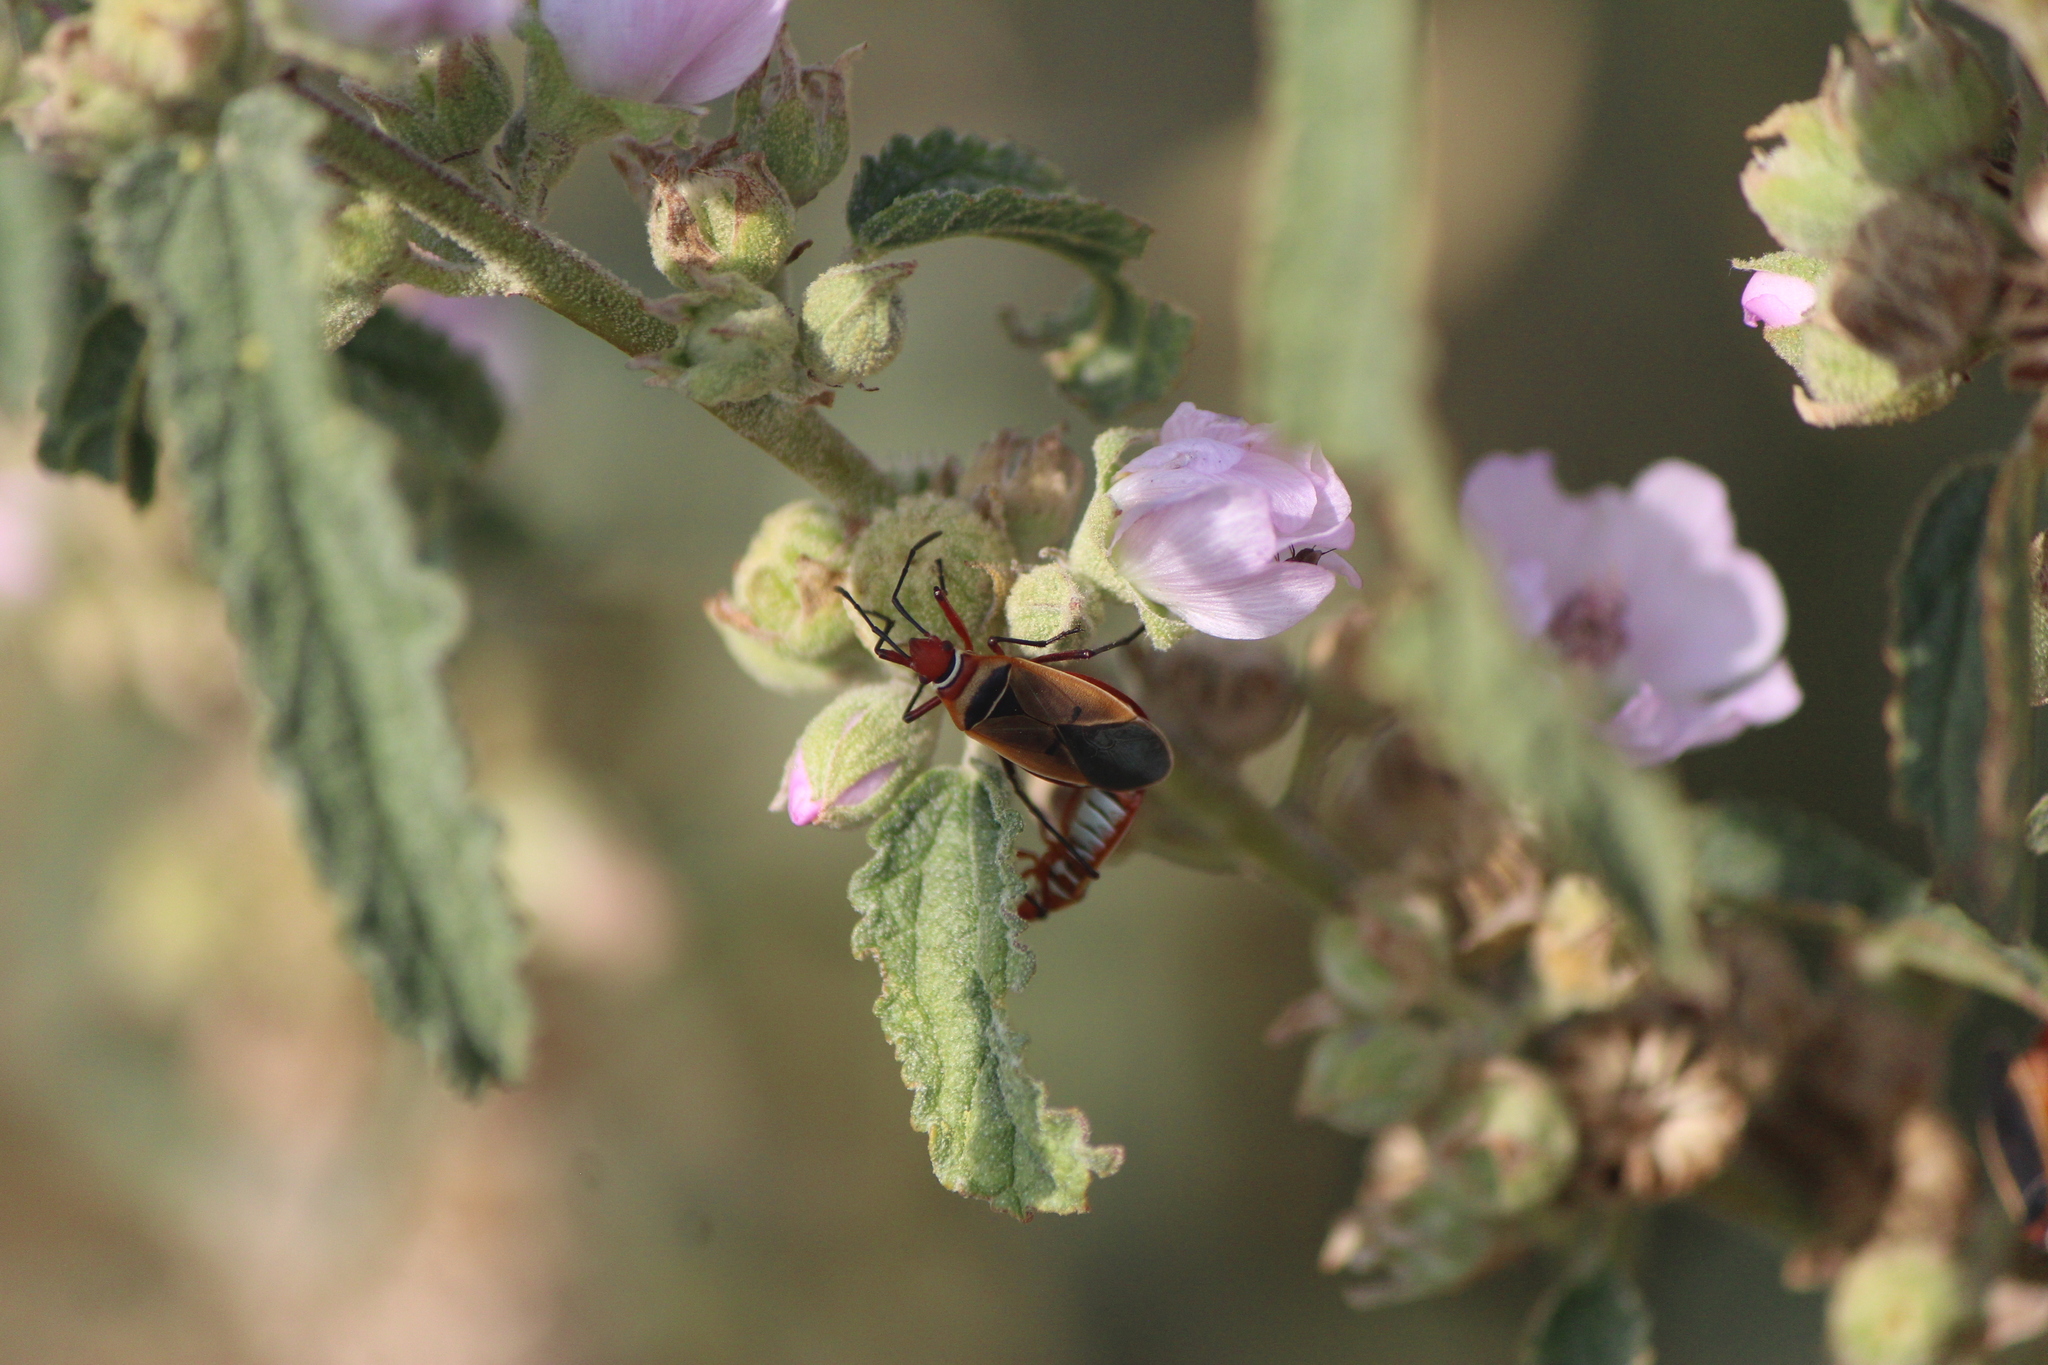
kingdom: Animalia
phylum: Arthropoda
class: Insecta
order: Hemiptera
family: Pyrrhocoridae
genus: Dysdercus
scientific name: Dysdercus mimulus
